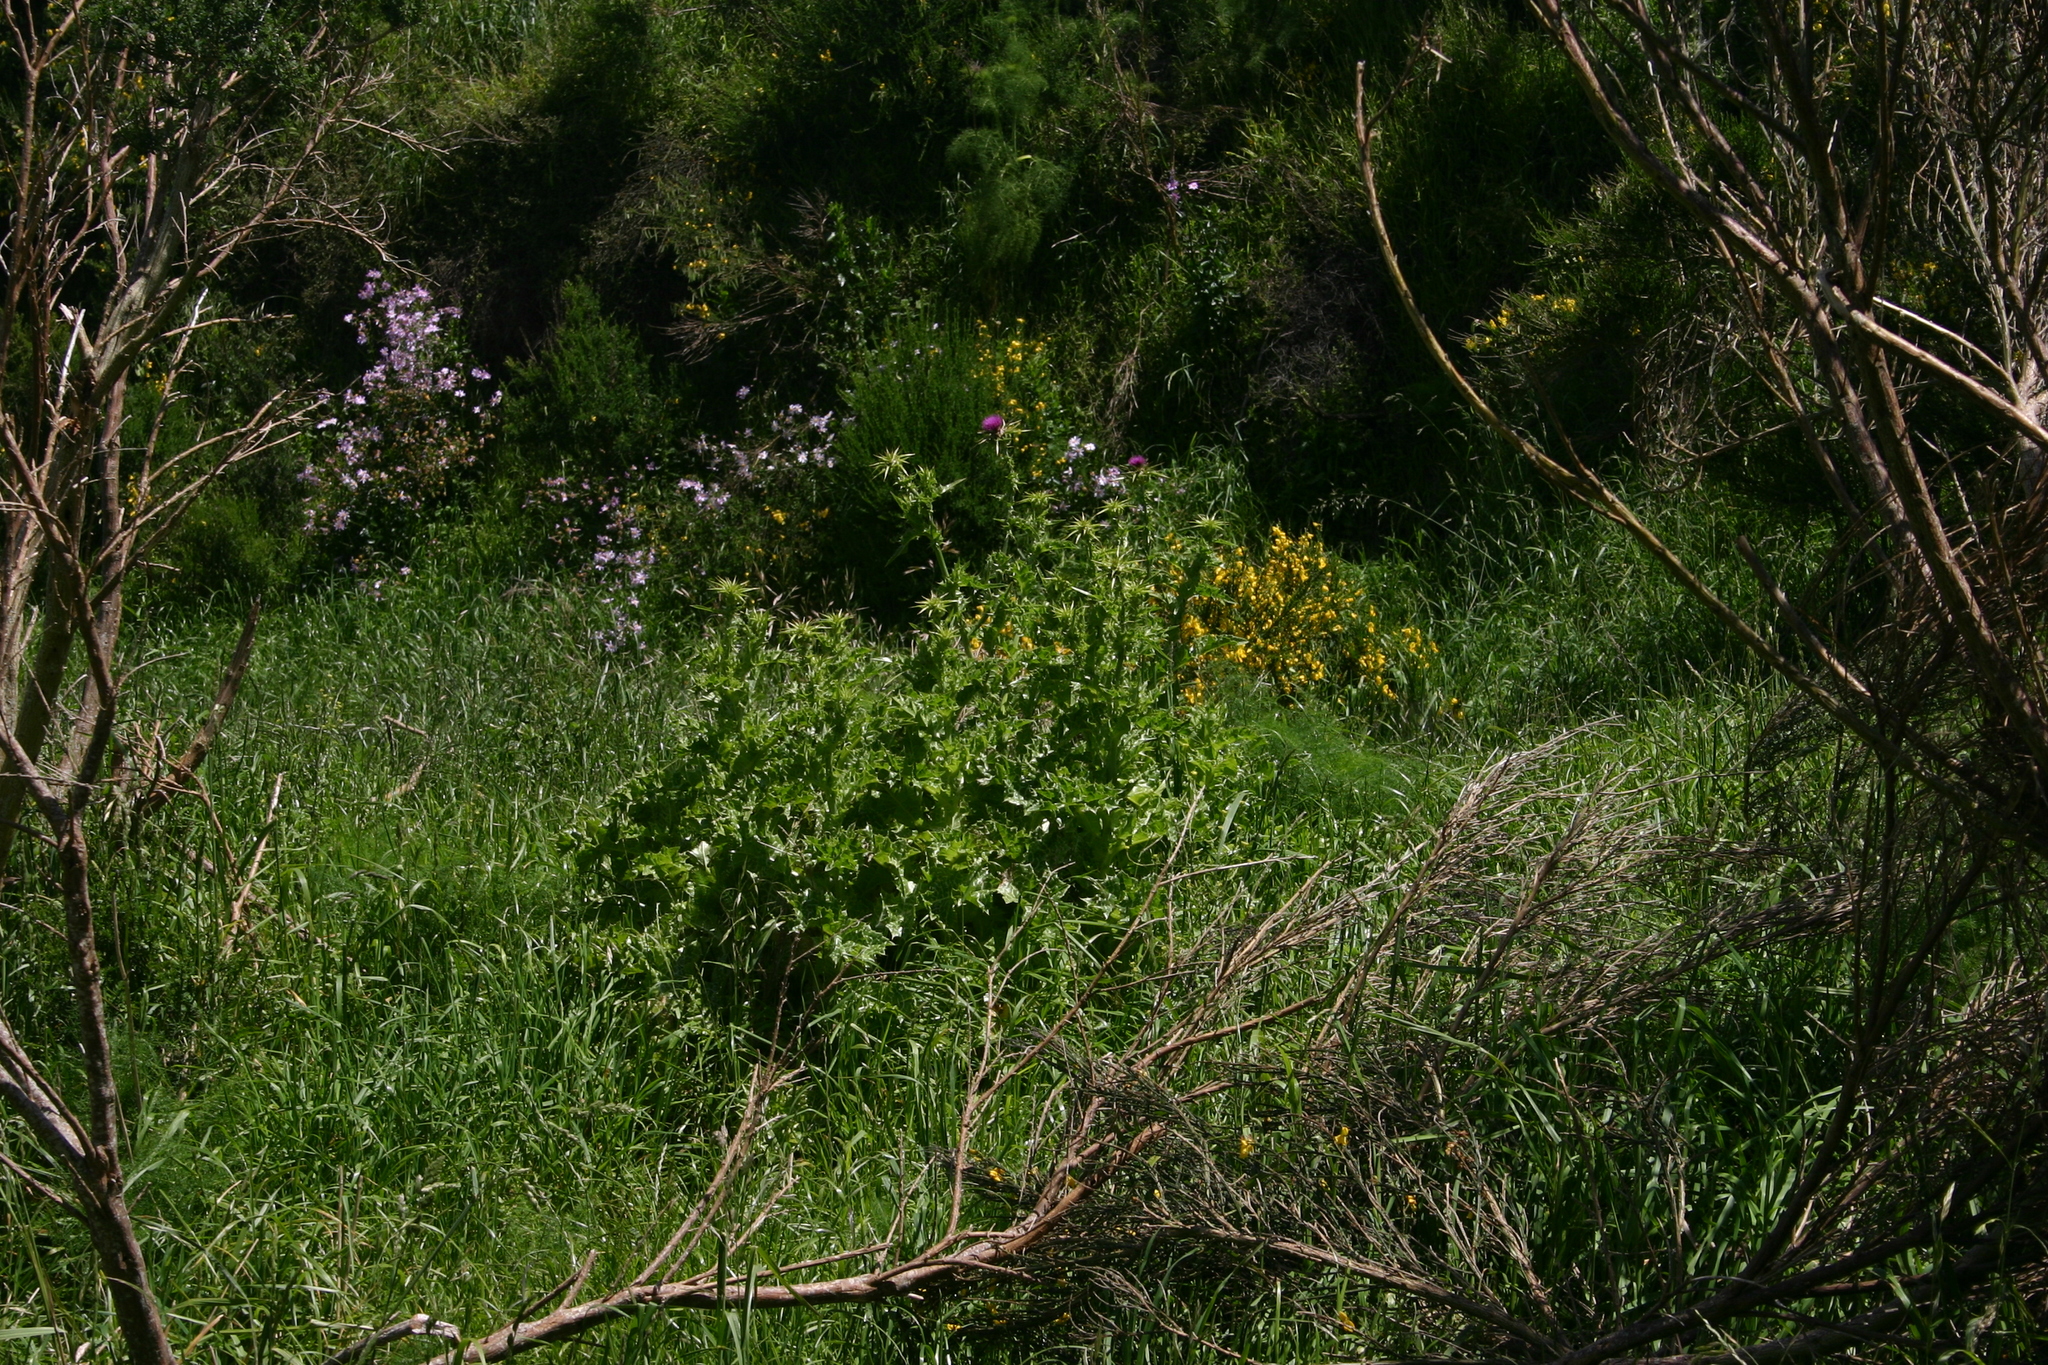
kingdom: Plantae
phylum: Tracheophyta
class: Magnoliopsida
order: Asterales
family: Asteraceae
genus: Silybum
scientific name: Silybum marianum
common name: Milk thistle
